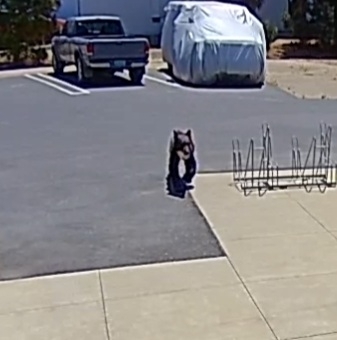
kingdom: Animalia
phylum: Chordata
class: Mammalia
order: Carnivora
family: Ursidae
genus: Ursus
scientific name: Ursus americanus
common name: American black bear
